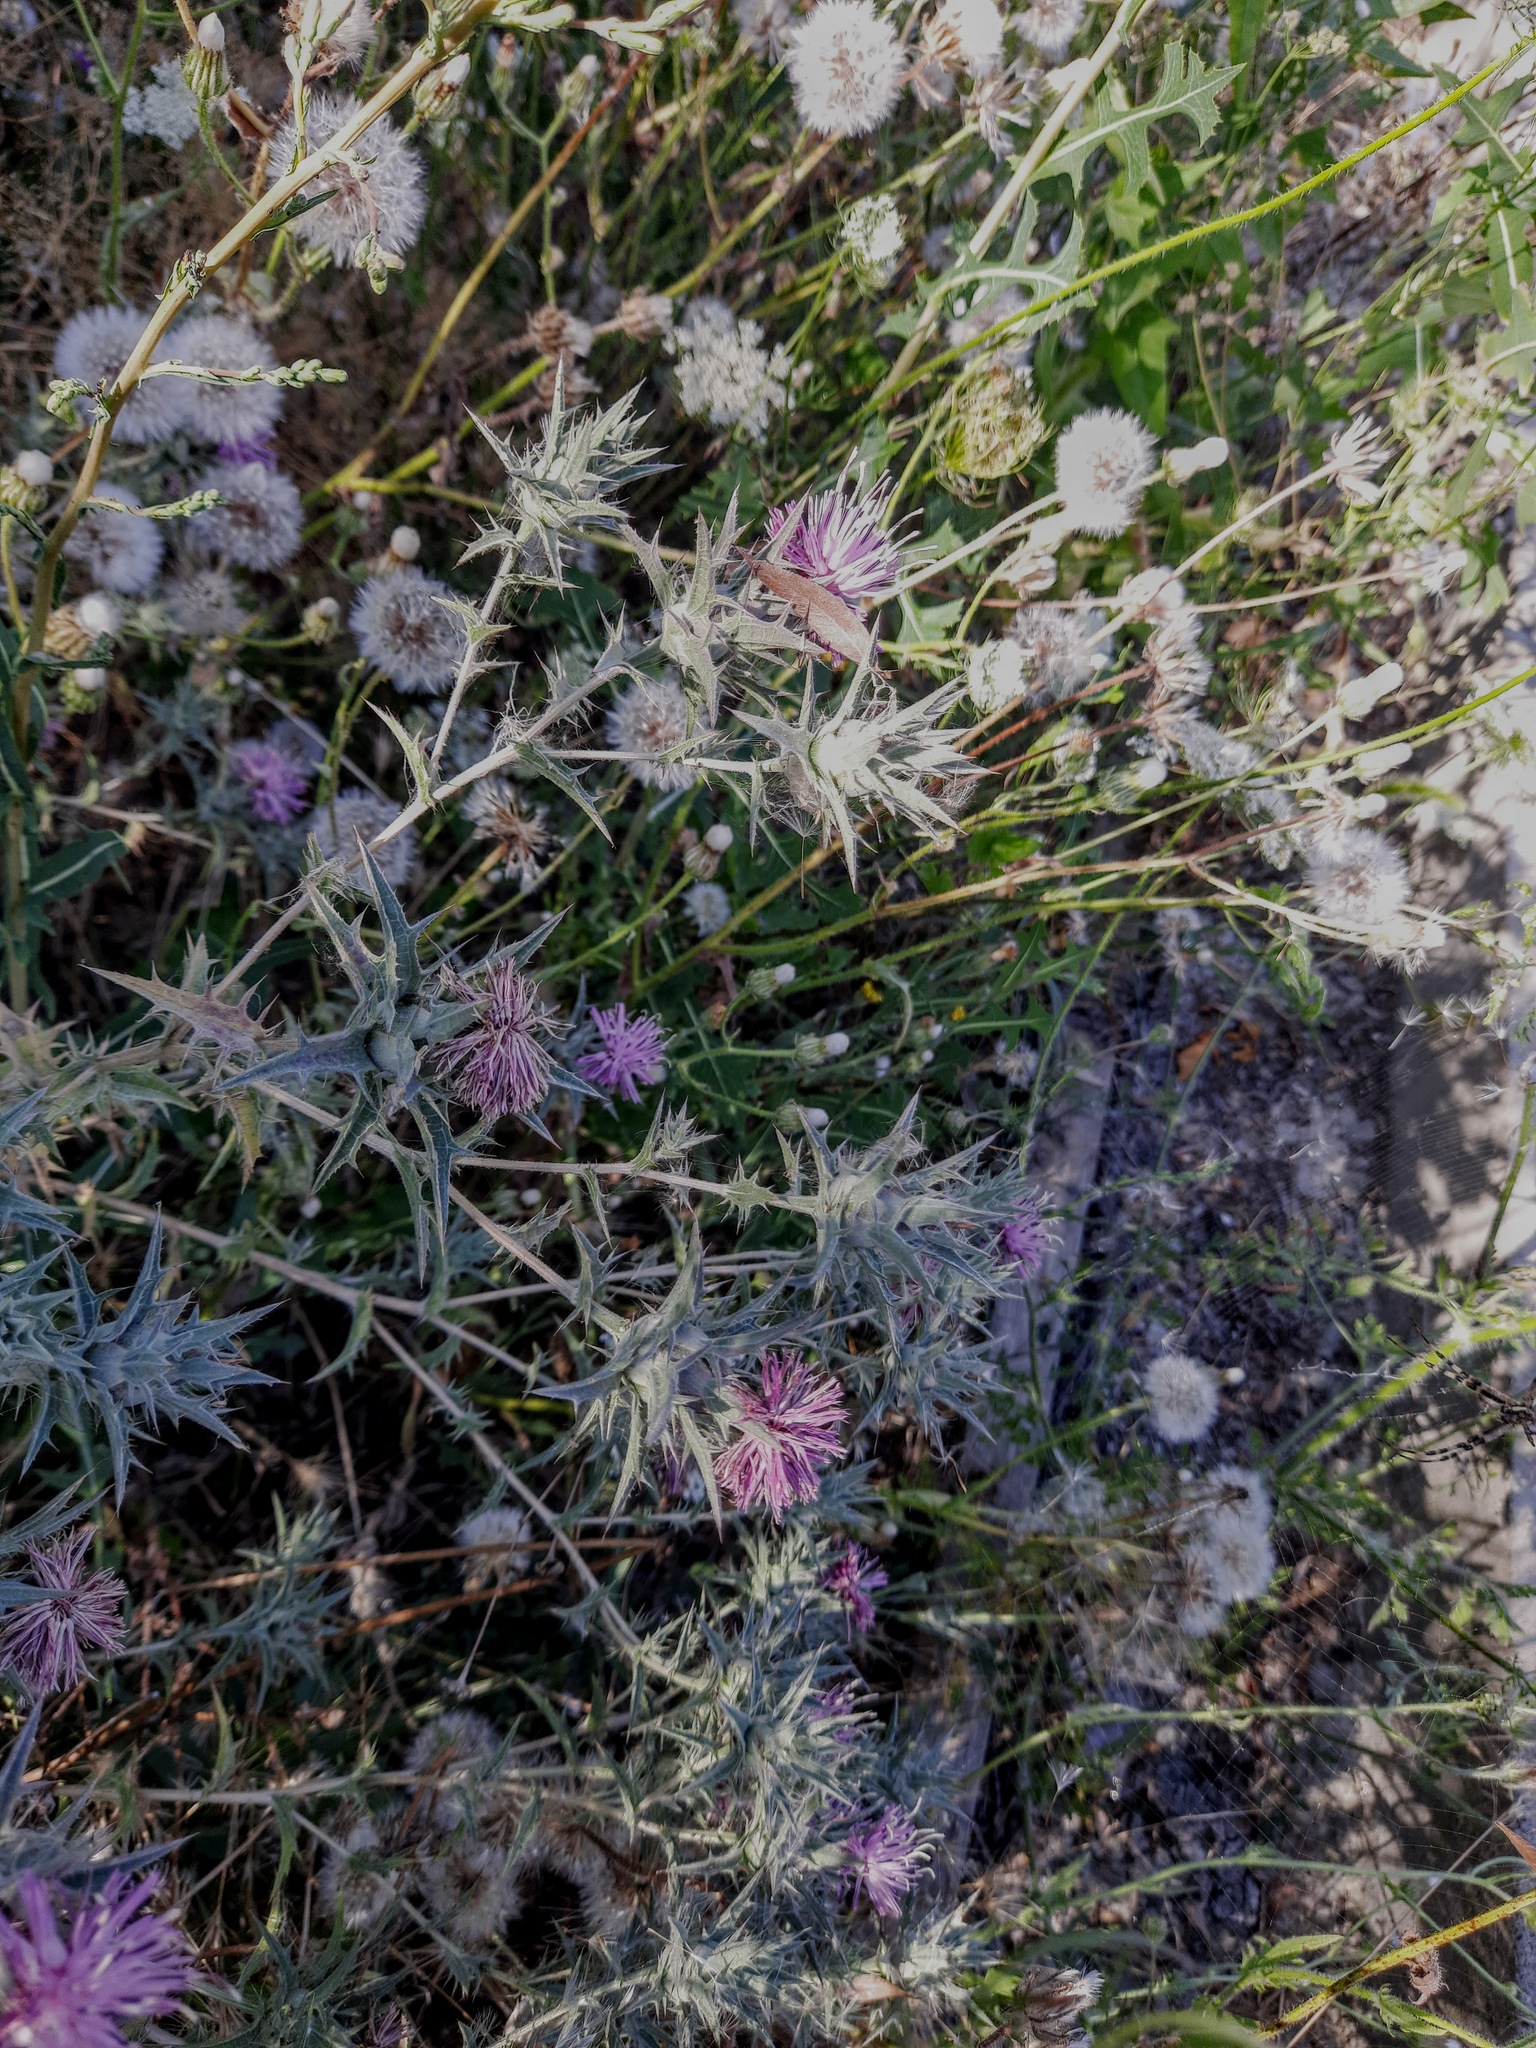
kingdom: Plantae
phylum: Tracheophyta
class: Magnoliopsida
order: Asterales
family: Asteraceae
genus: Carthamus
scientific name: Carthamus glaucus
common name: Mediterranean thistle
